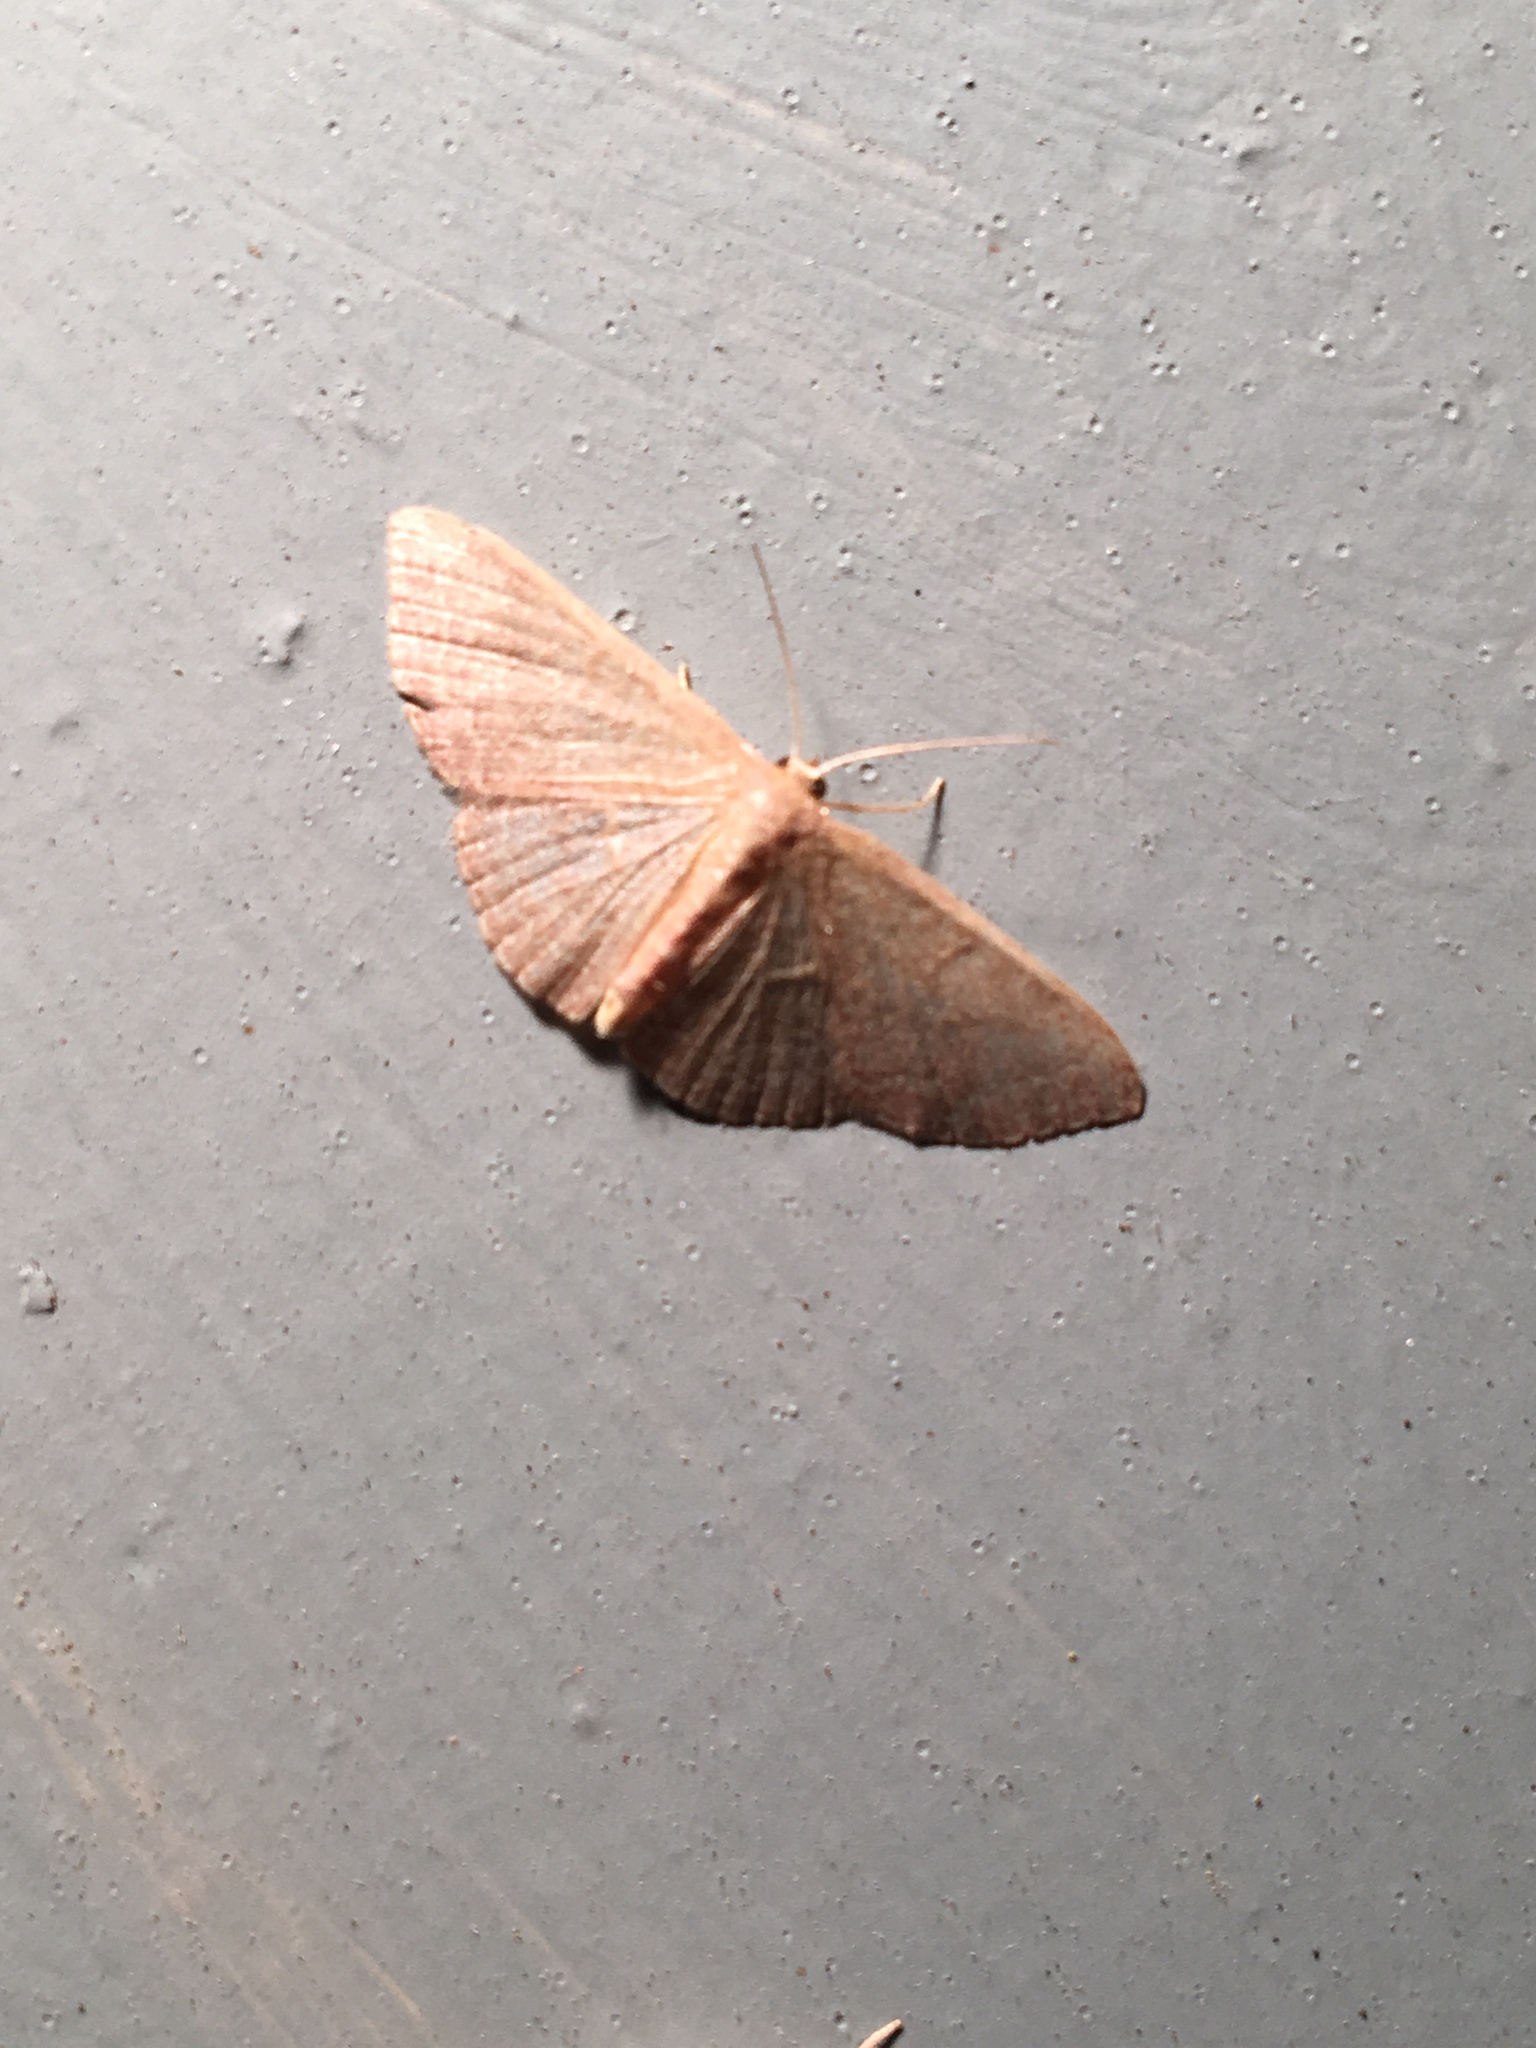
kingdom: Animalia
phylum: Arthropoda
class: Insecta
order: Lepidoptera
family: Geometridae
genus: Pleuroprucha
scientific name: Pleuroprucha insulsaria
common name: Common tan wave
